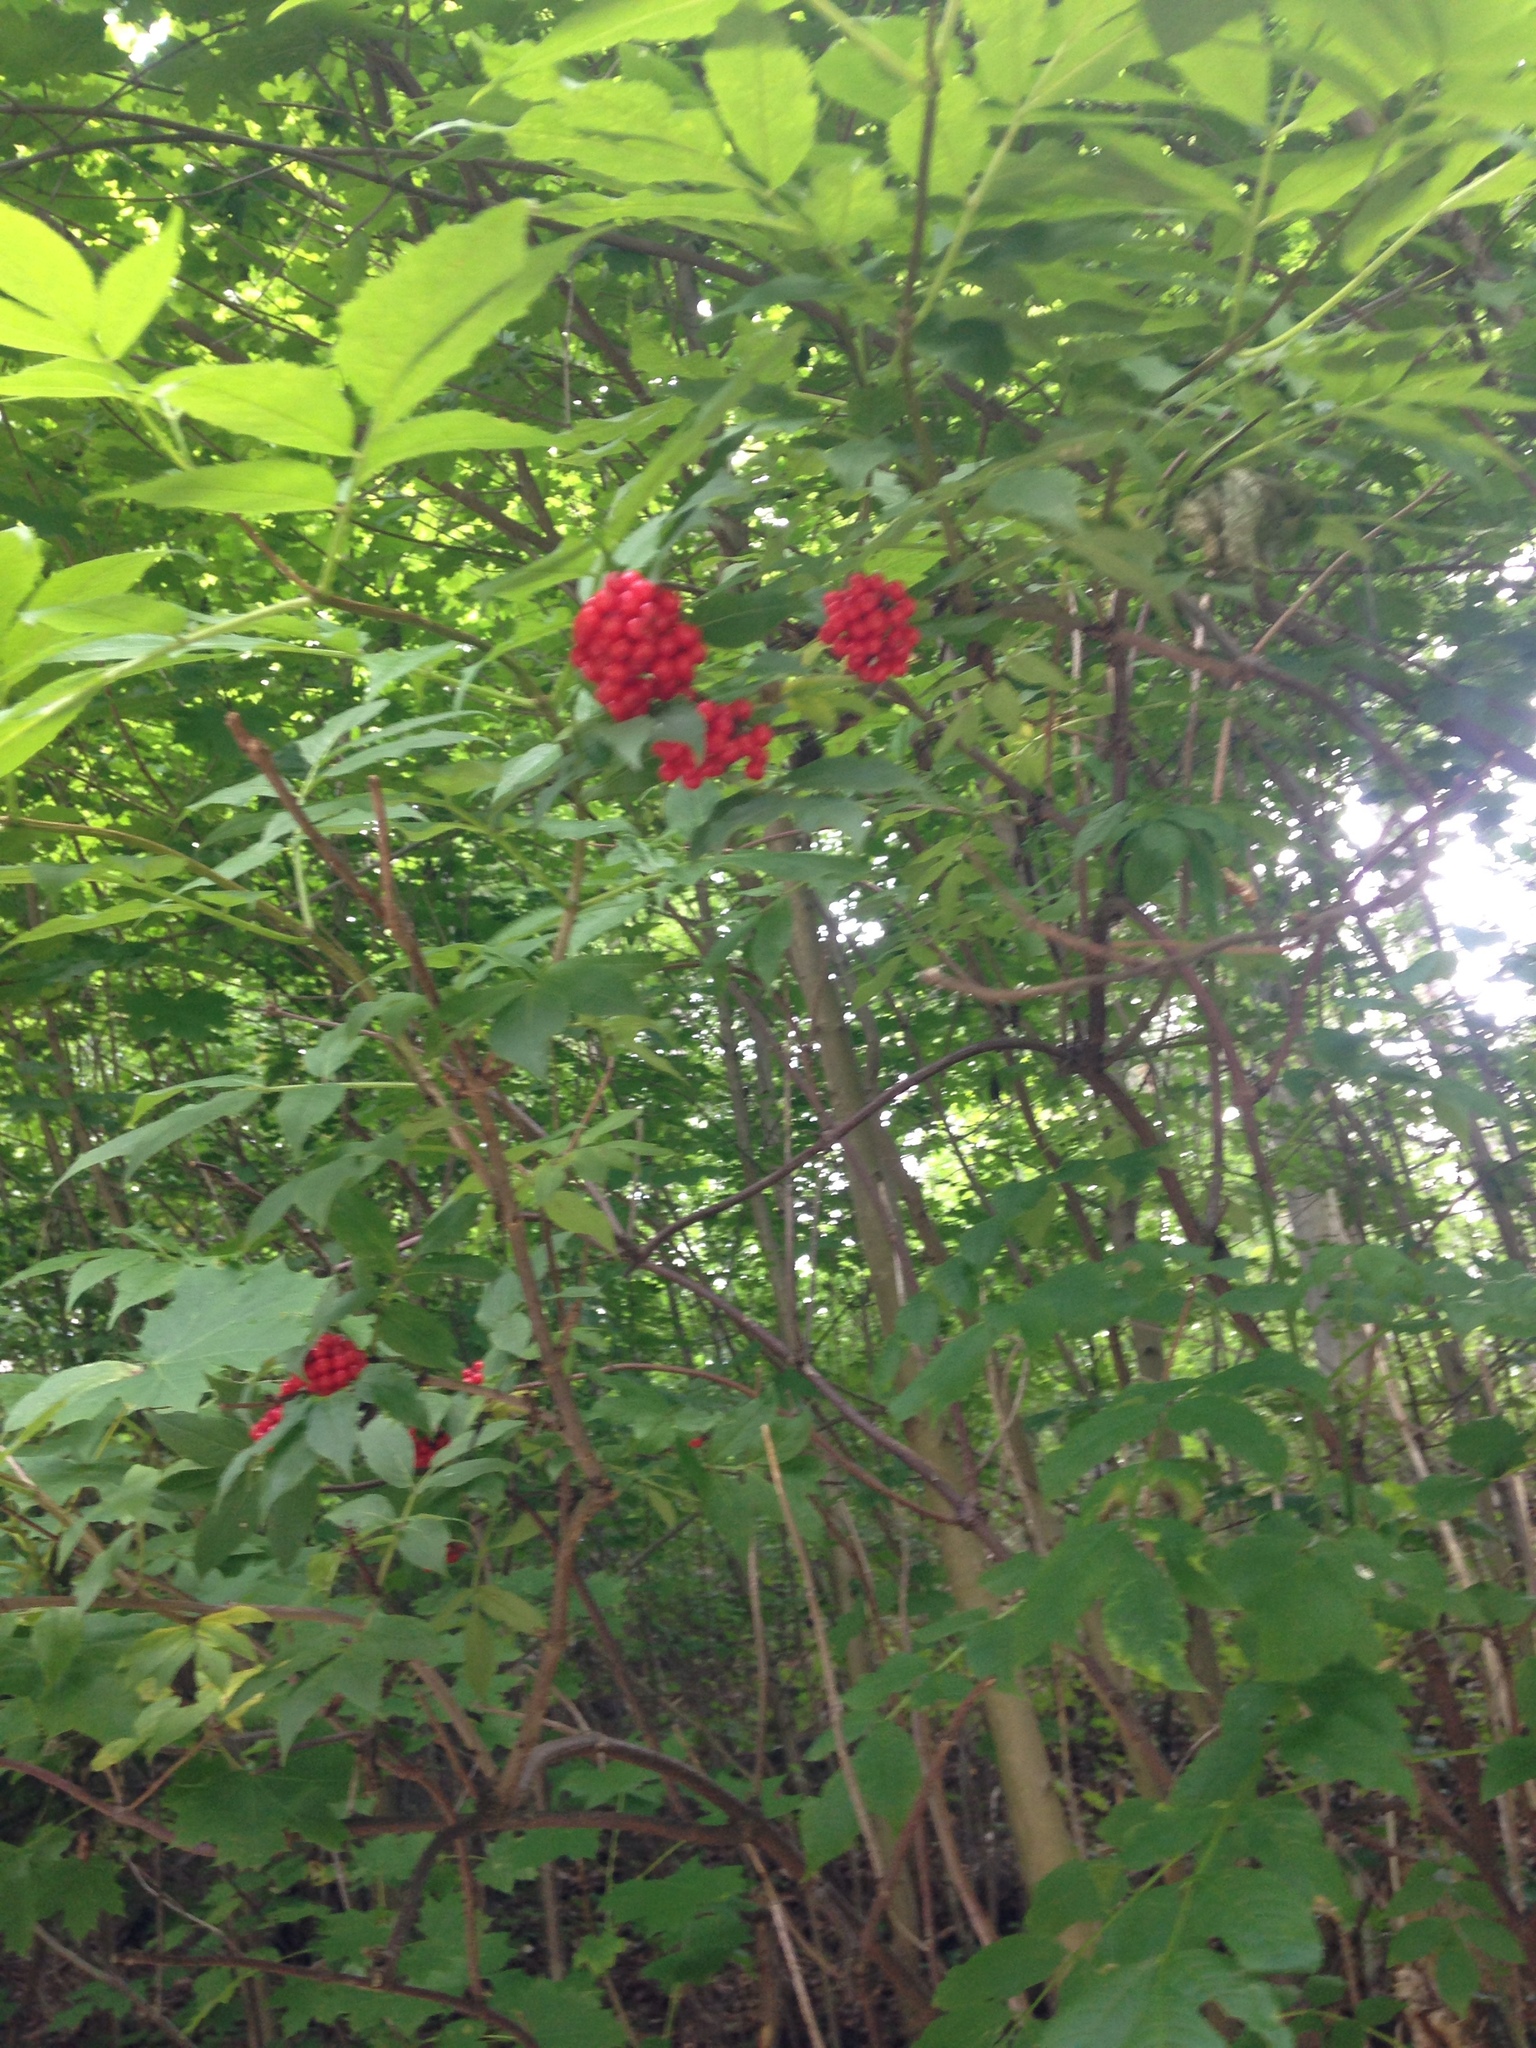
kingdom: Plantae
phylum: Tracheophyta
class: Magnoliopsida
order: Dipsacales
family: Viburnaceae
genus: Sambucus
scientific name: Sambucus racemosa
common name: Red-berried elder
